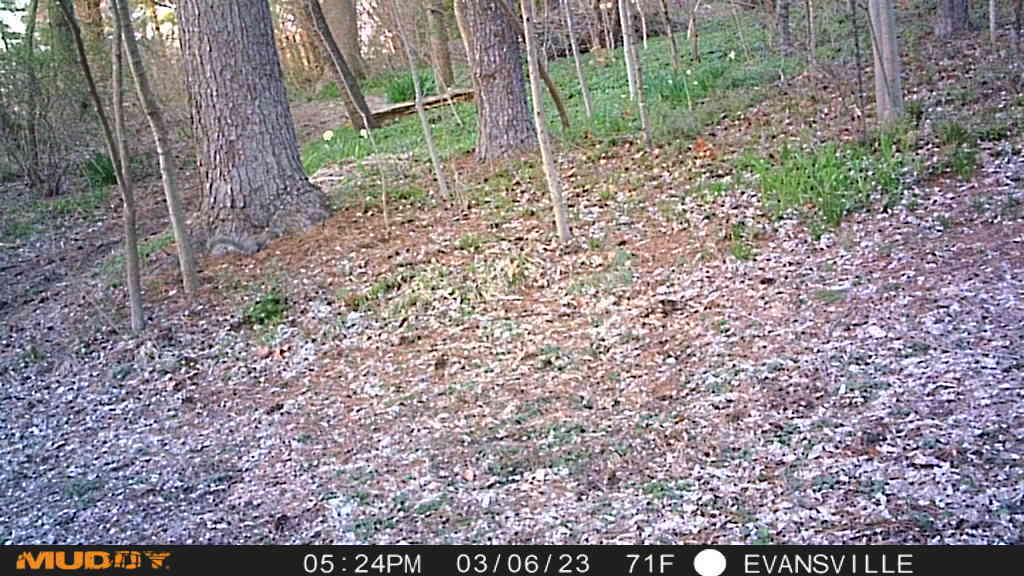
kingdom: Animalia
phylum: Chordata
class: Mammalia
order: Rodentia
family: Sciuridae
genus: Sciurus
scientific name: Sciurus carolinensis
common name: Eastern gray squirrel
